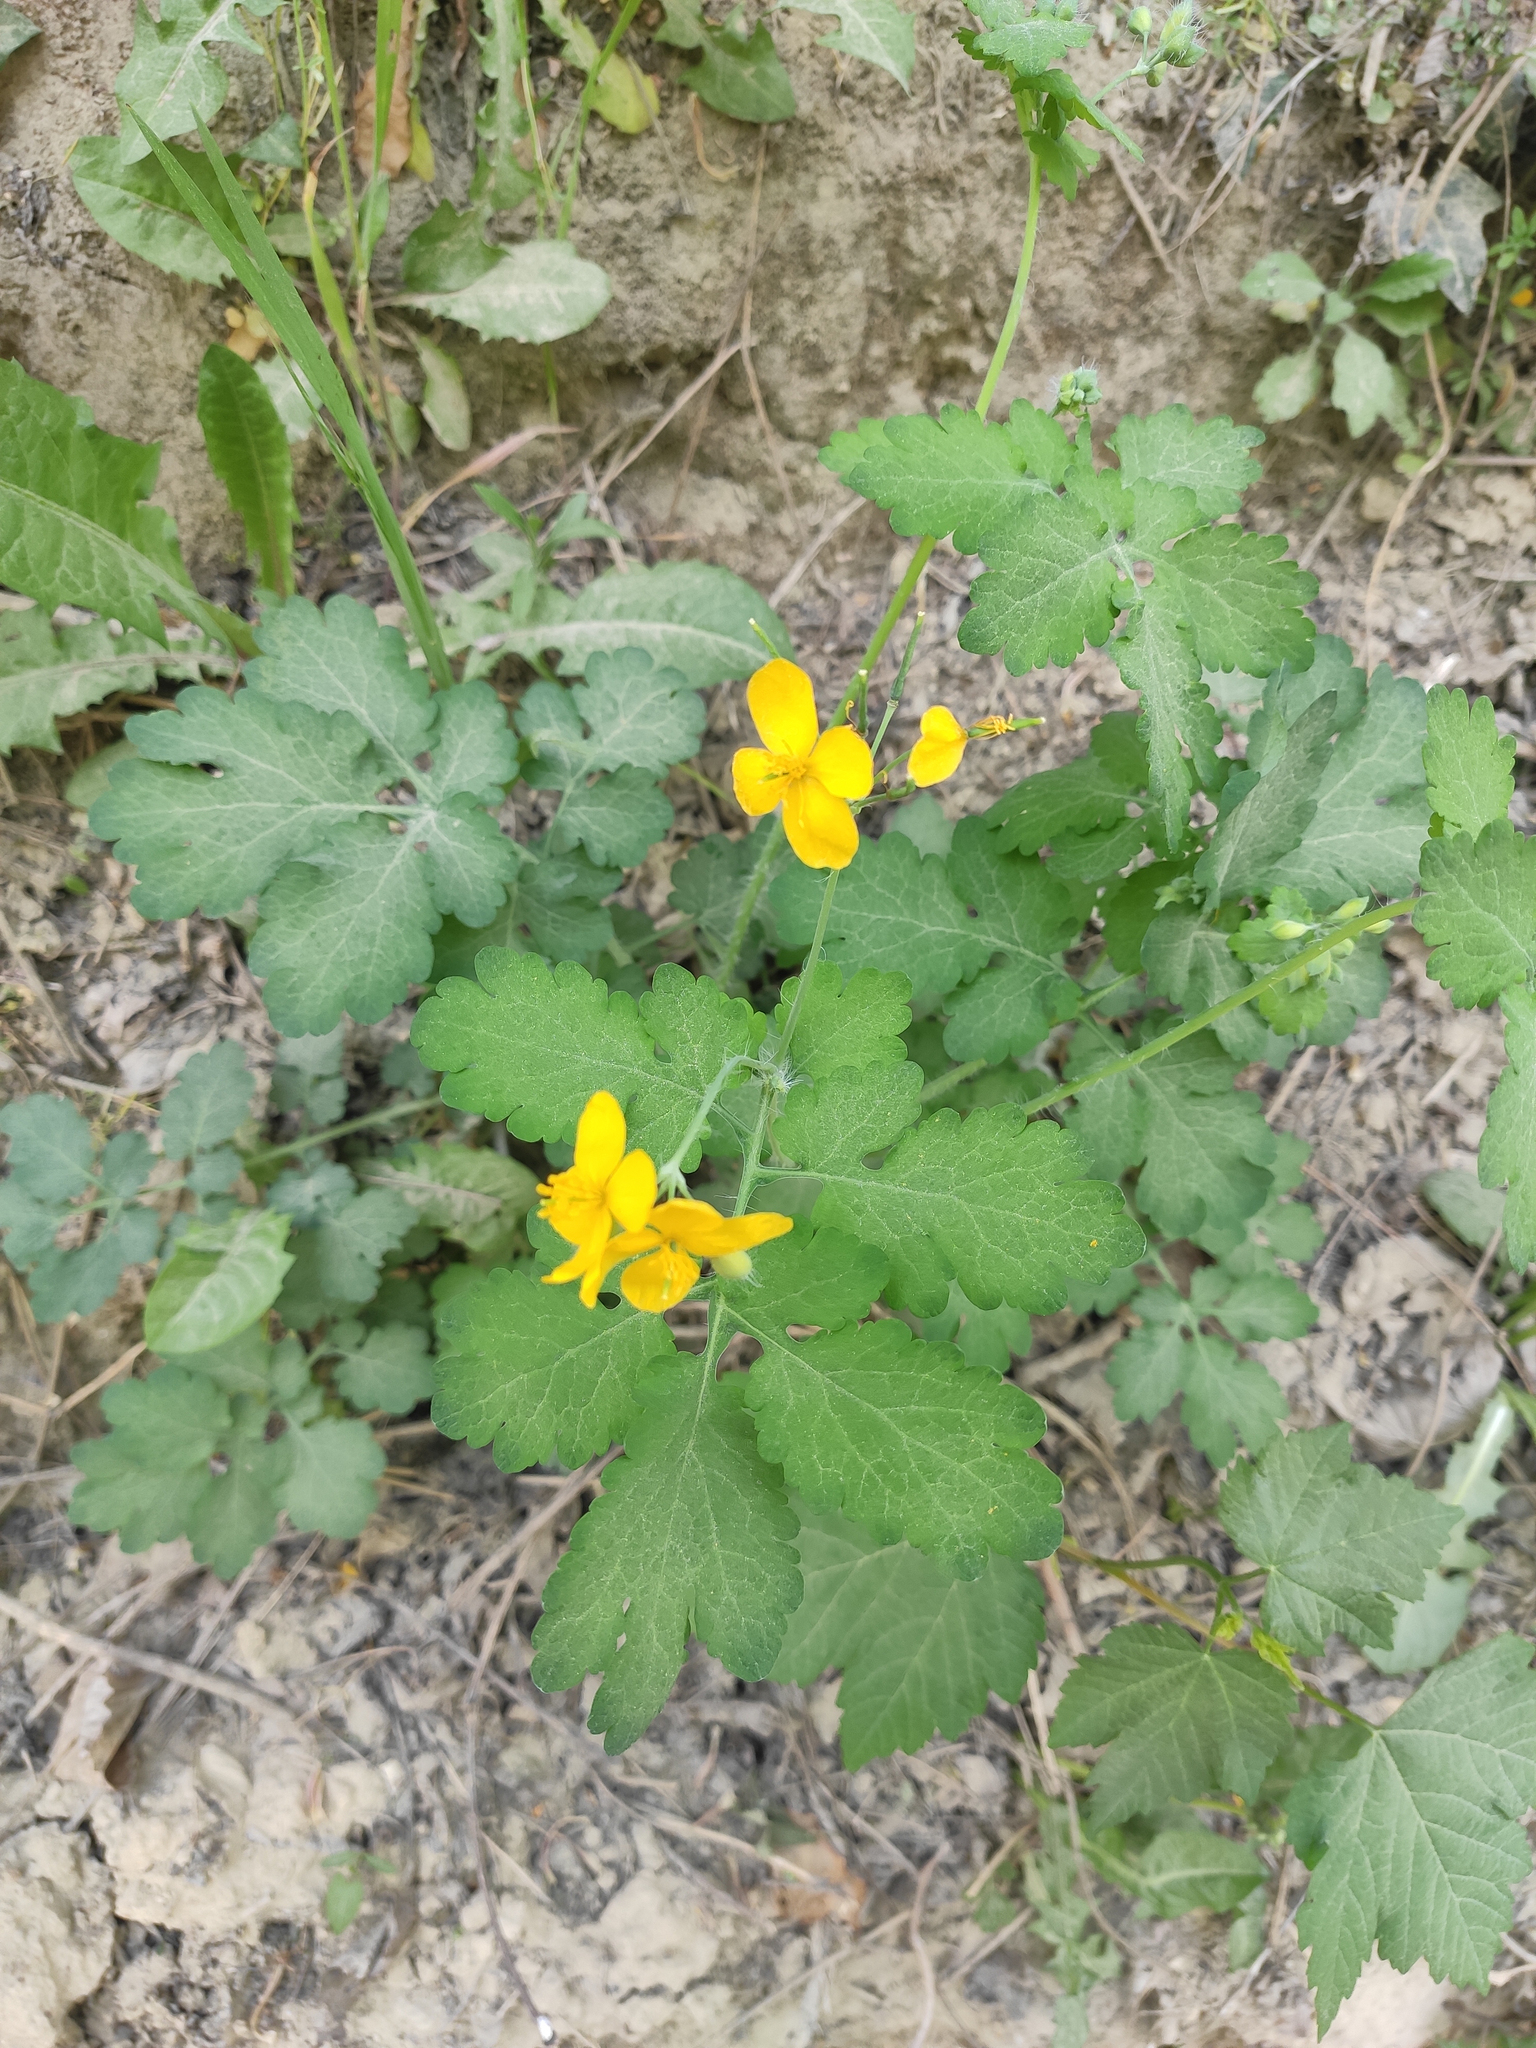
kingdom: Plantae
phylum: Tracheophyta
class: Magnoliopsida
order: Ranunculales
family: Papaveraceae
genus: Chelidonium
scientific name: Chelidonium majus
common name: Greater celandine
